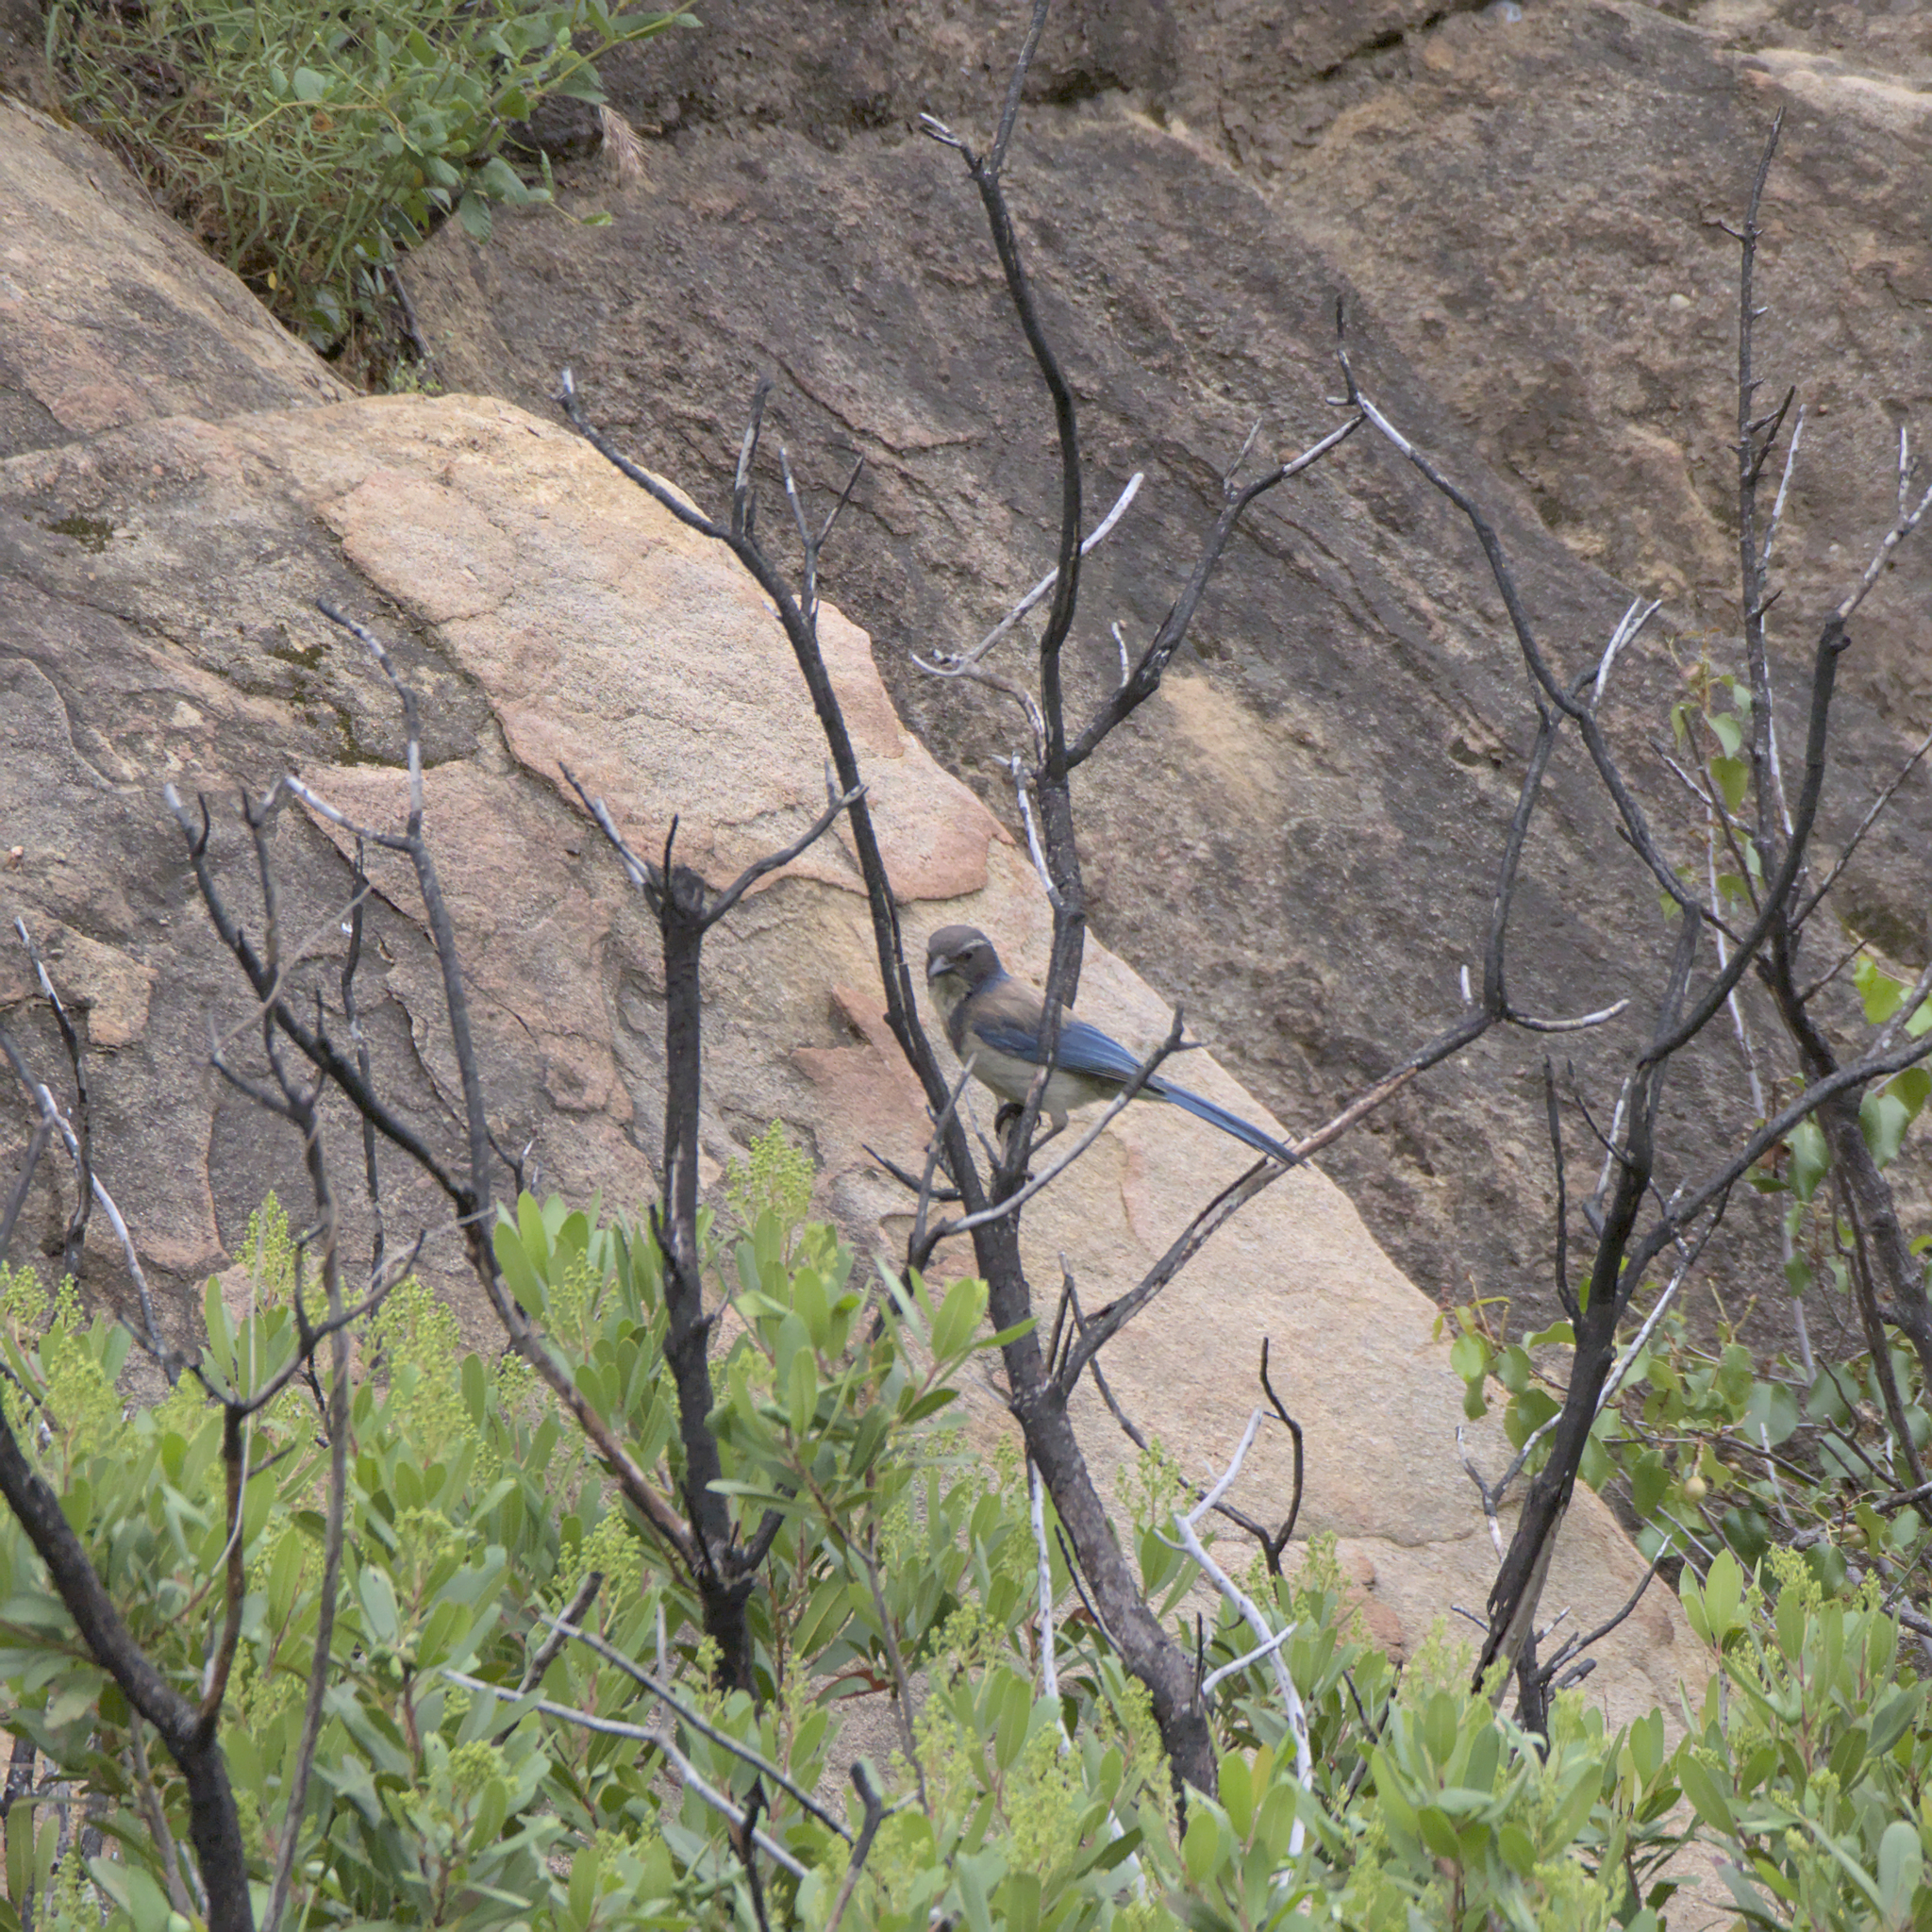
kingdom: Animalia
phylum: Chordata
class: Aves
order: Passeriformes
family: Corvidae
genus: Aphelocoma
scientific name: Aphelocoma californica
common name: California scrub-jay
